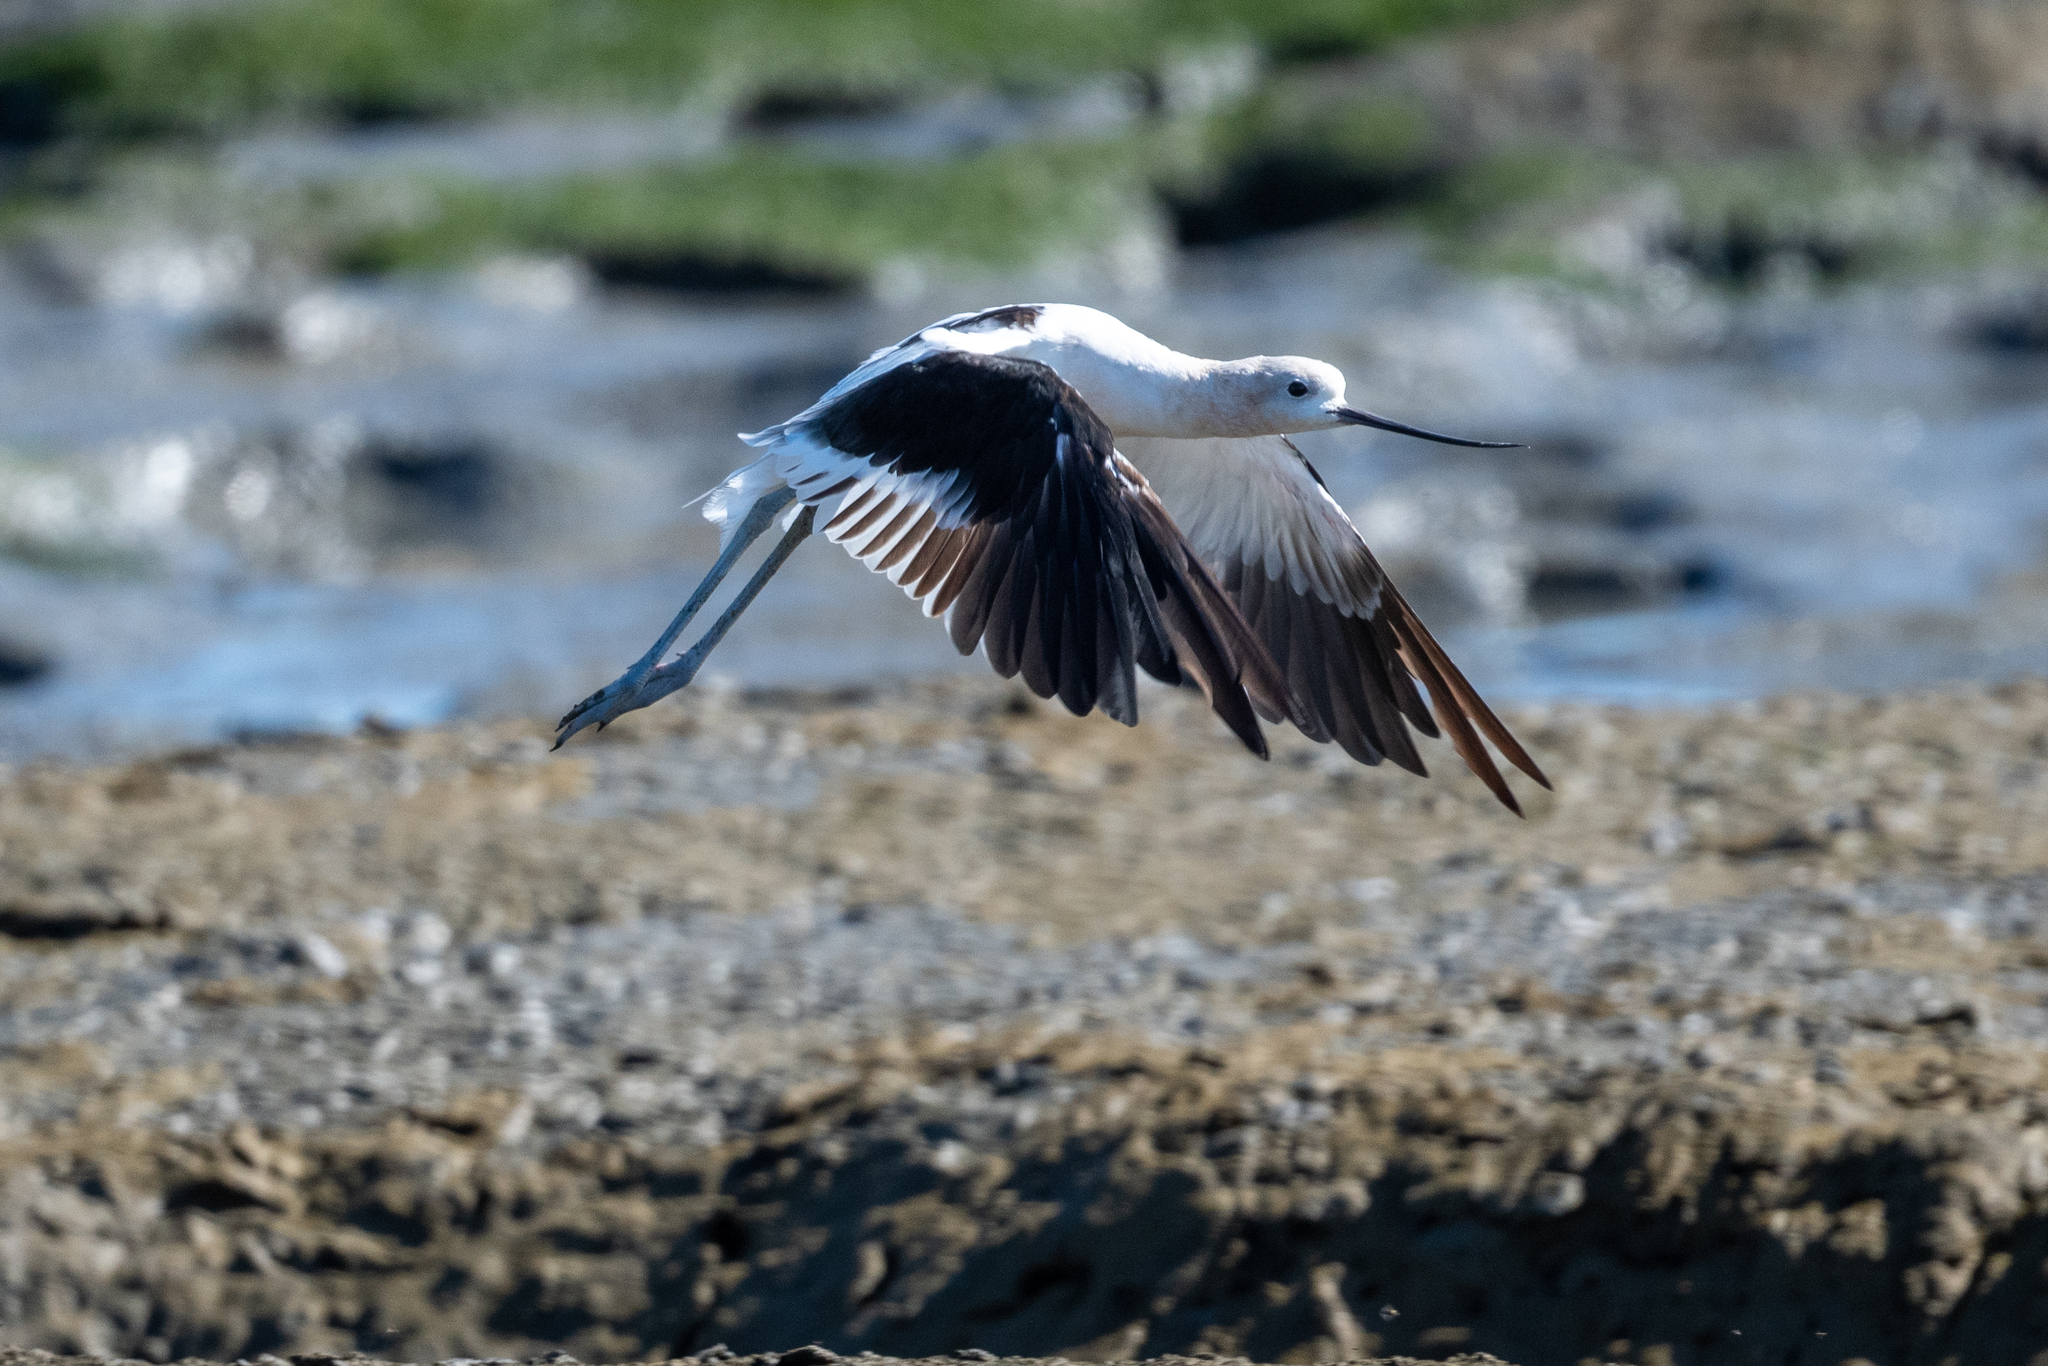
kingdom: Animalia
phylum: Chordata
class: Aves
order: Charadriiformes
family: Recurvirostridae
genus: Recurvirostra
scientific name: Recurvirostra americana
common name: American avocet
